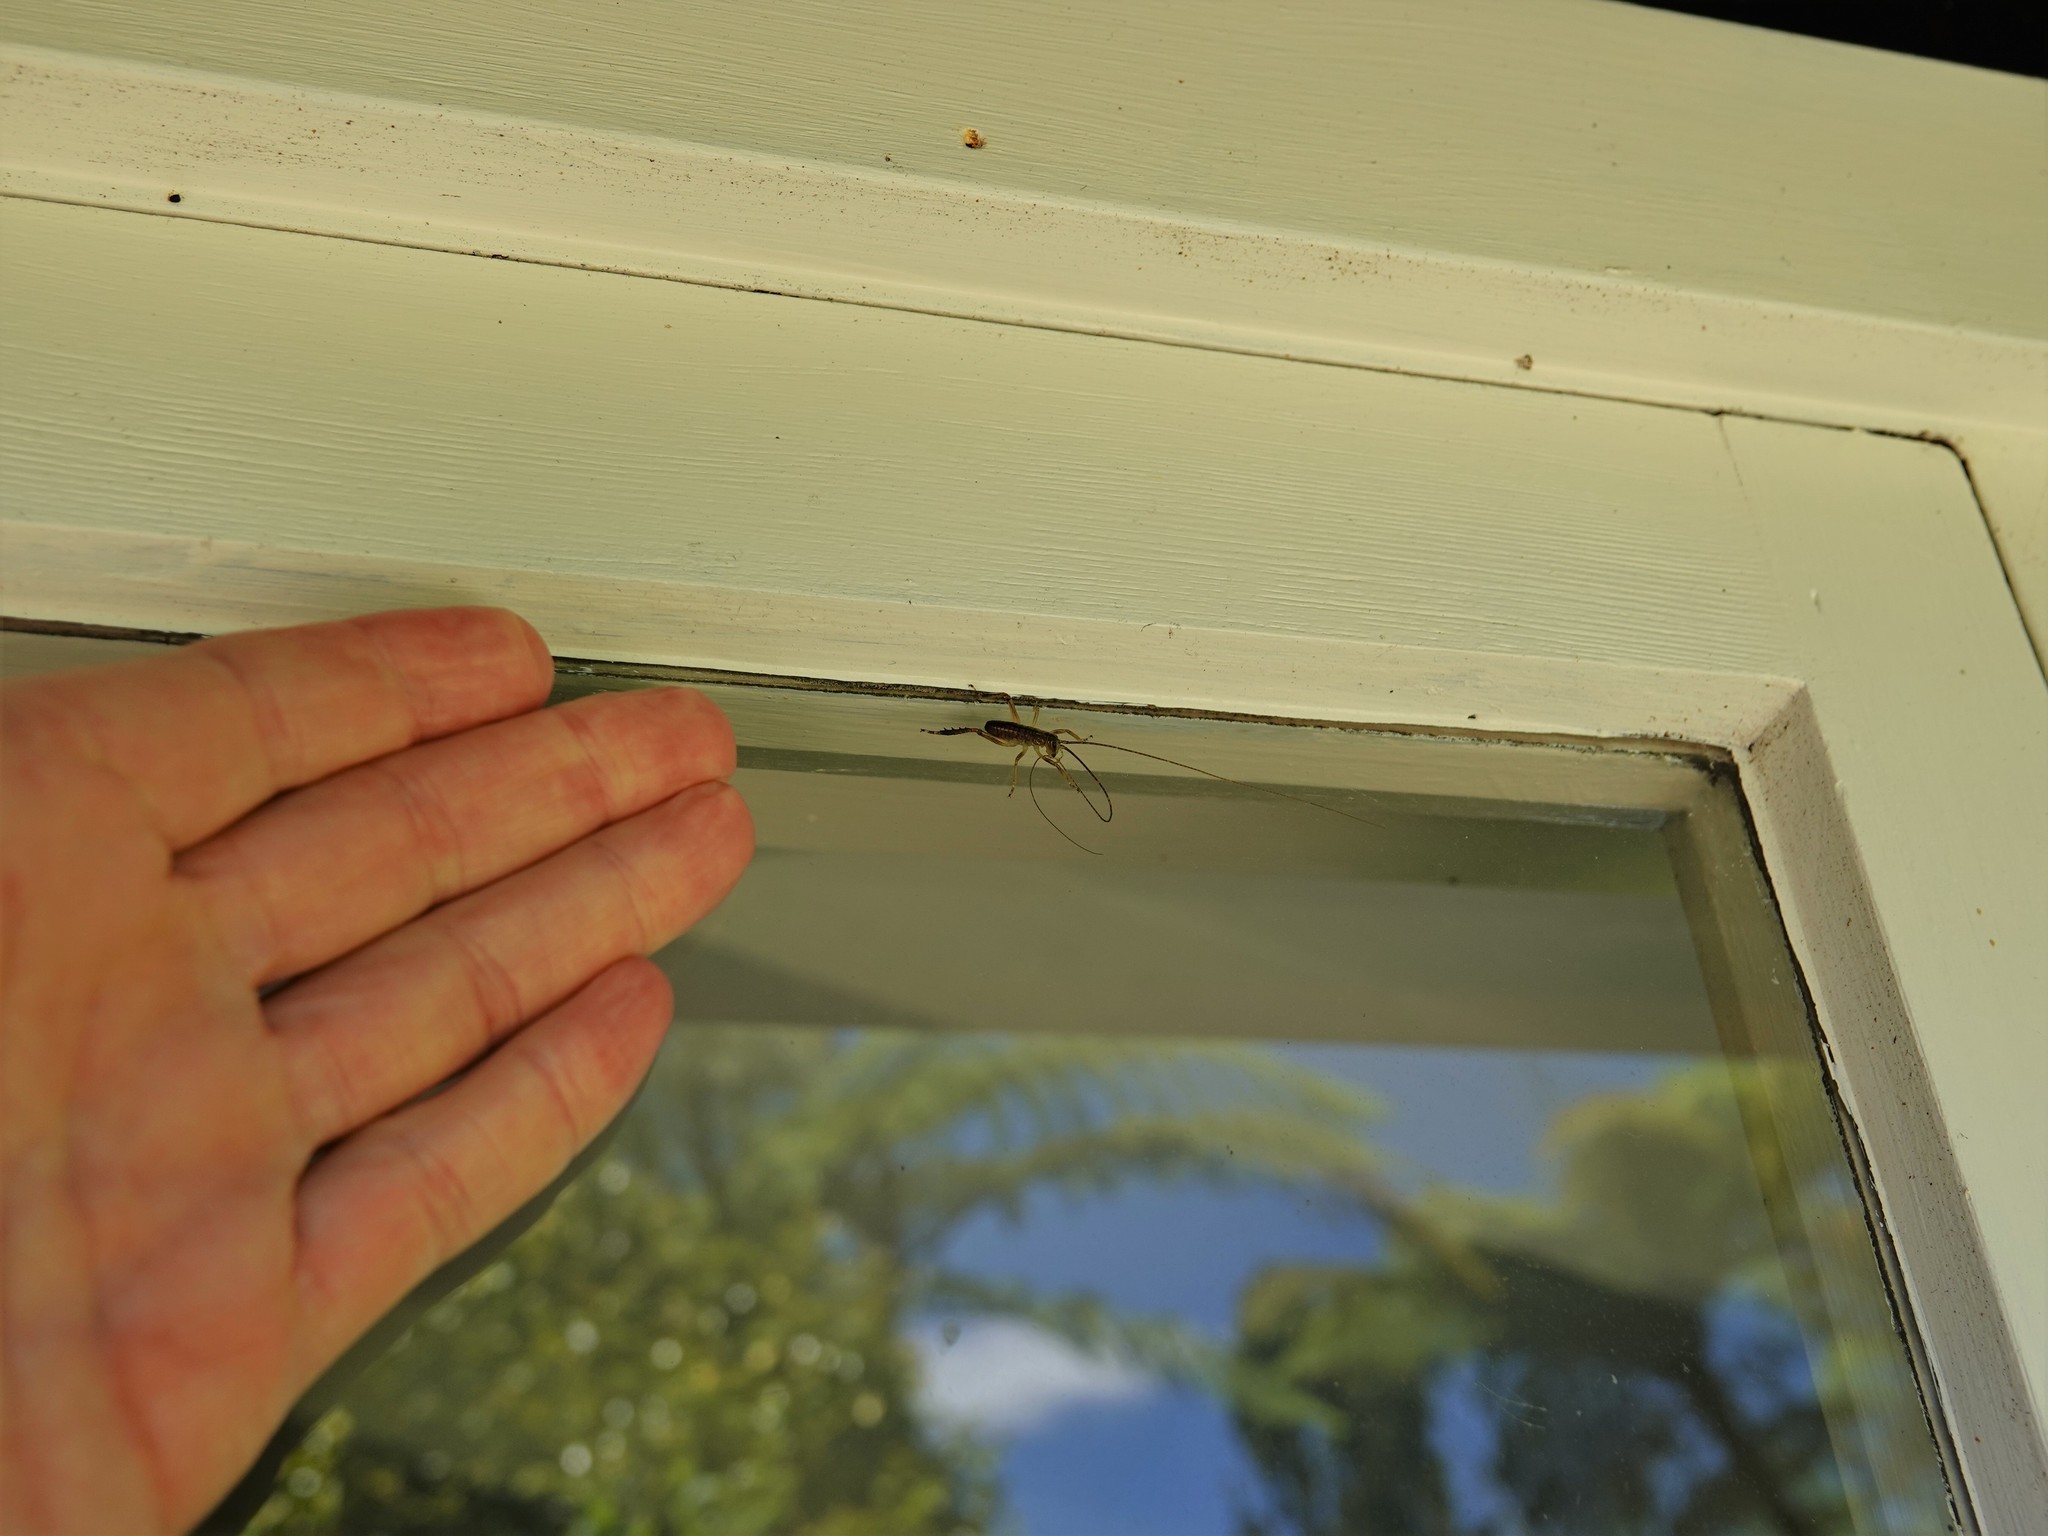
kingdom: Animalia
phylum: Arthropoda
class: Insecta
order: Orthoptera
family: Anostostomatidae
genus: Hemideina
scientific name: Hemideina thoracica
